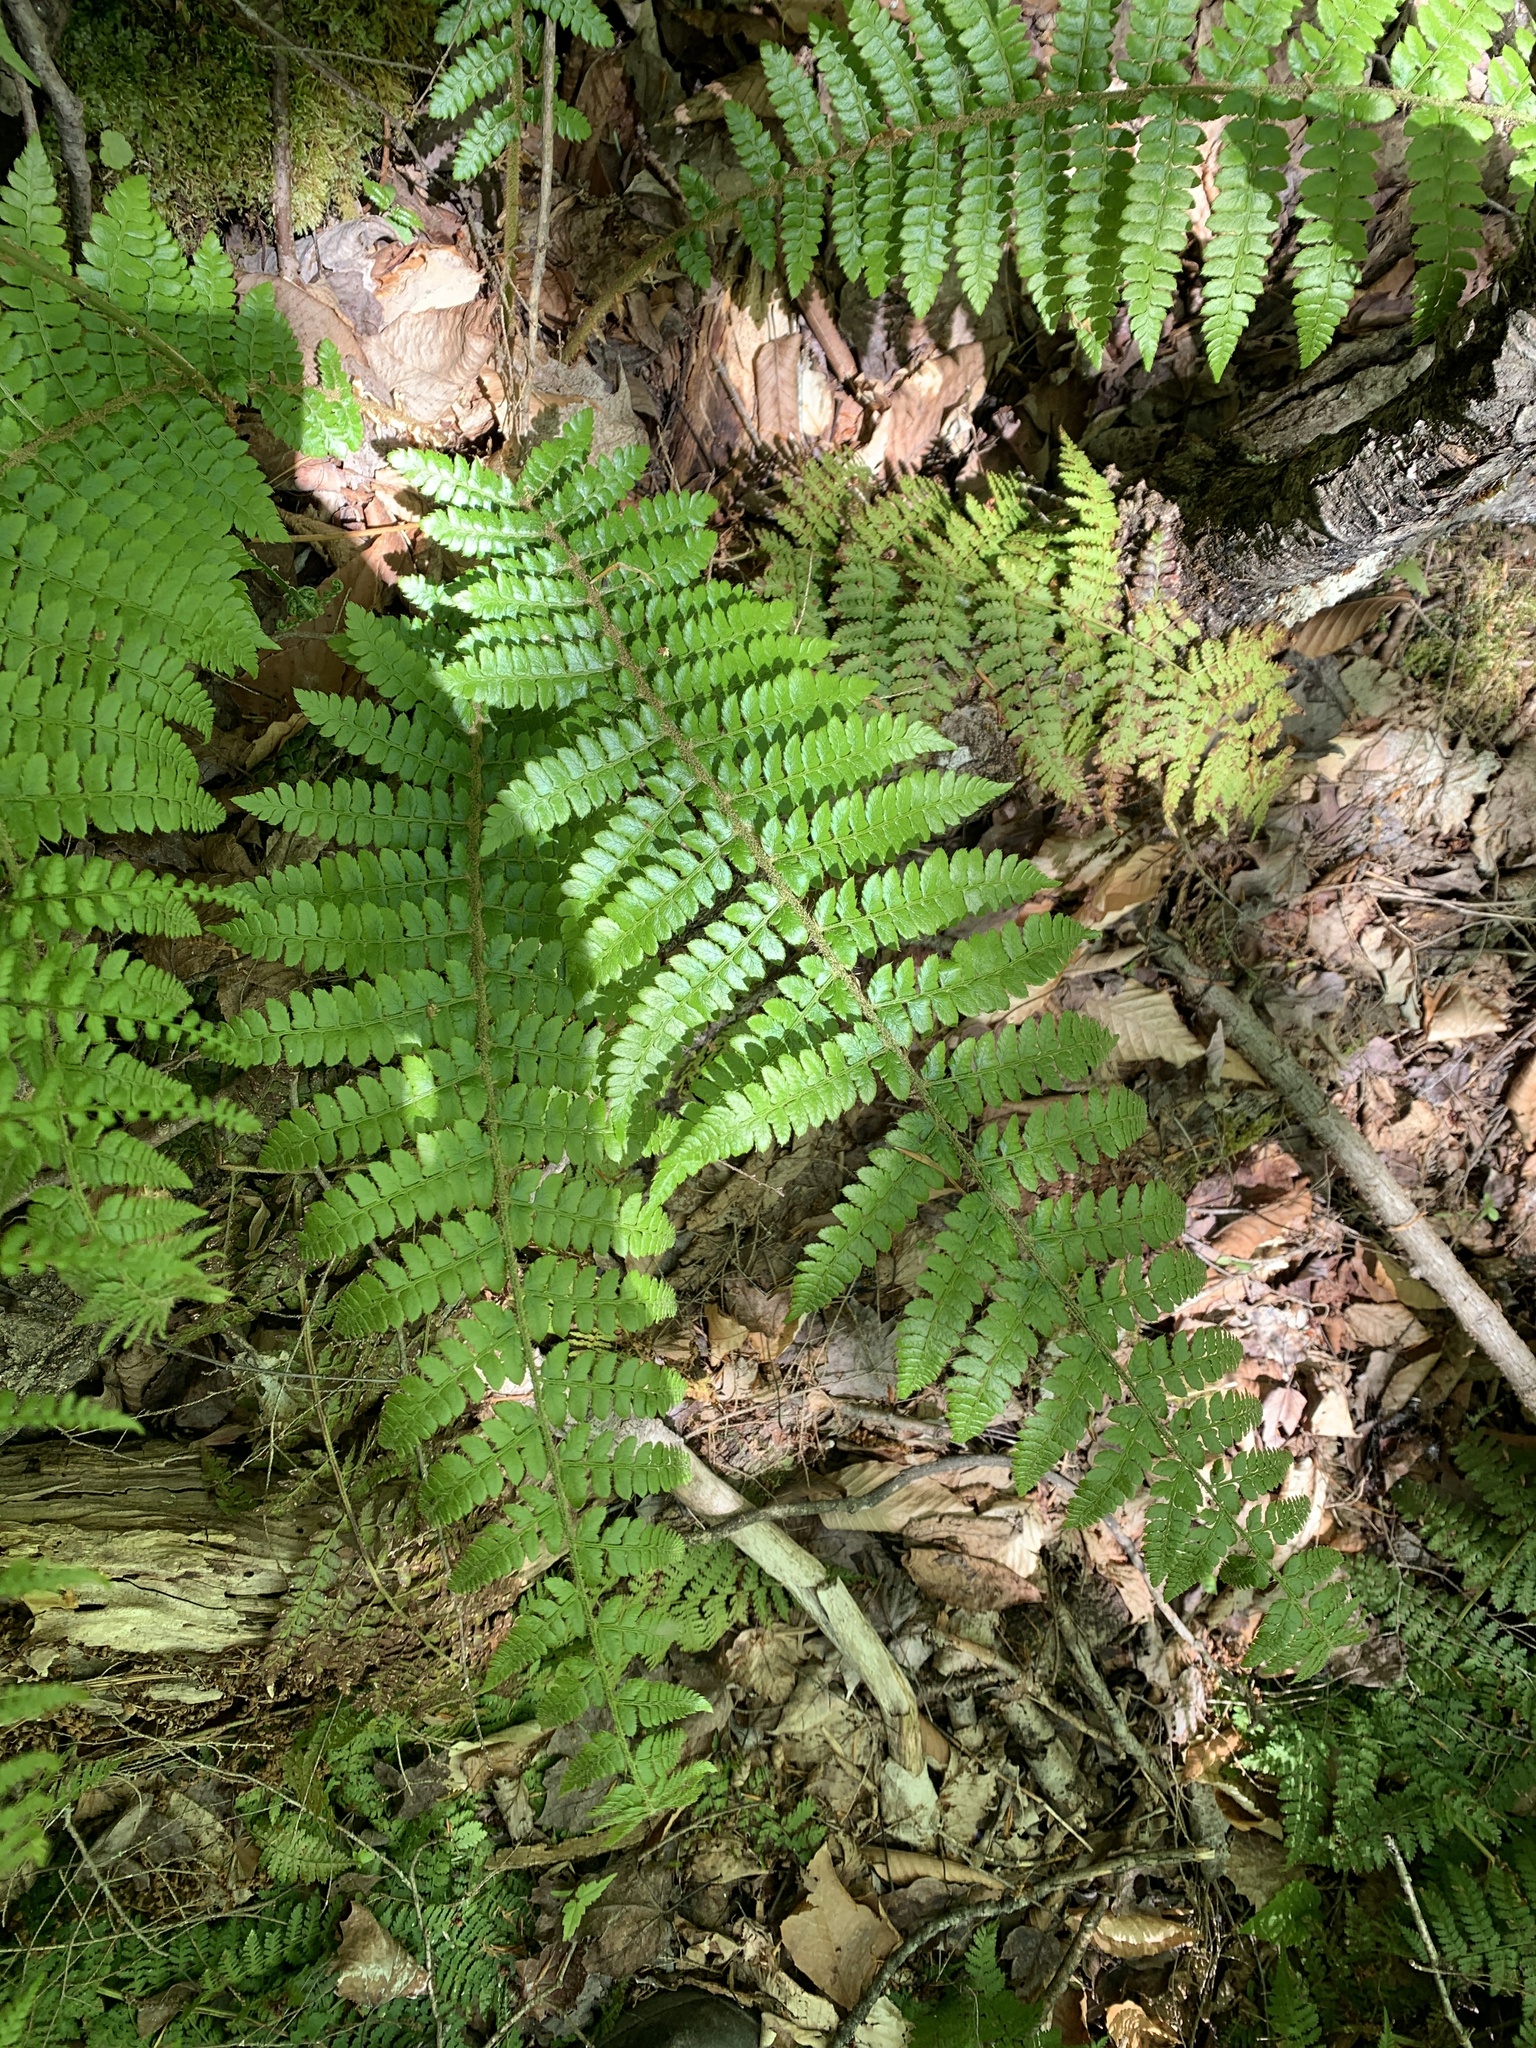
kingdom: Plantae
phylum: Tracheophyta
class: Polypodiopsida
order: Polypodiales
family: Dryopteridaceae
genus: Polystichum
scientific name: Polystichum braunii
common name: Braun's holly fern
